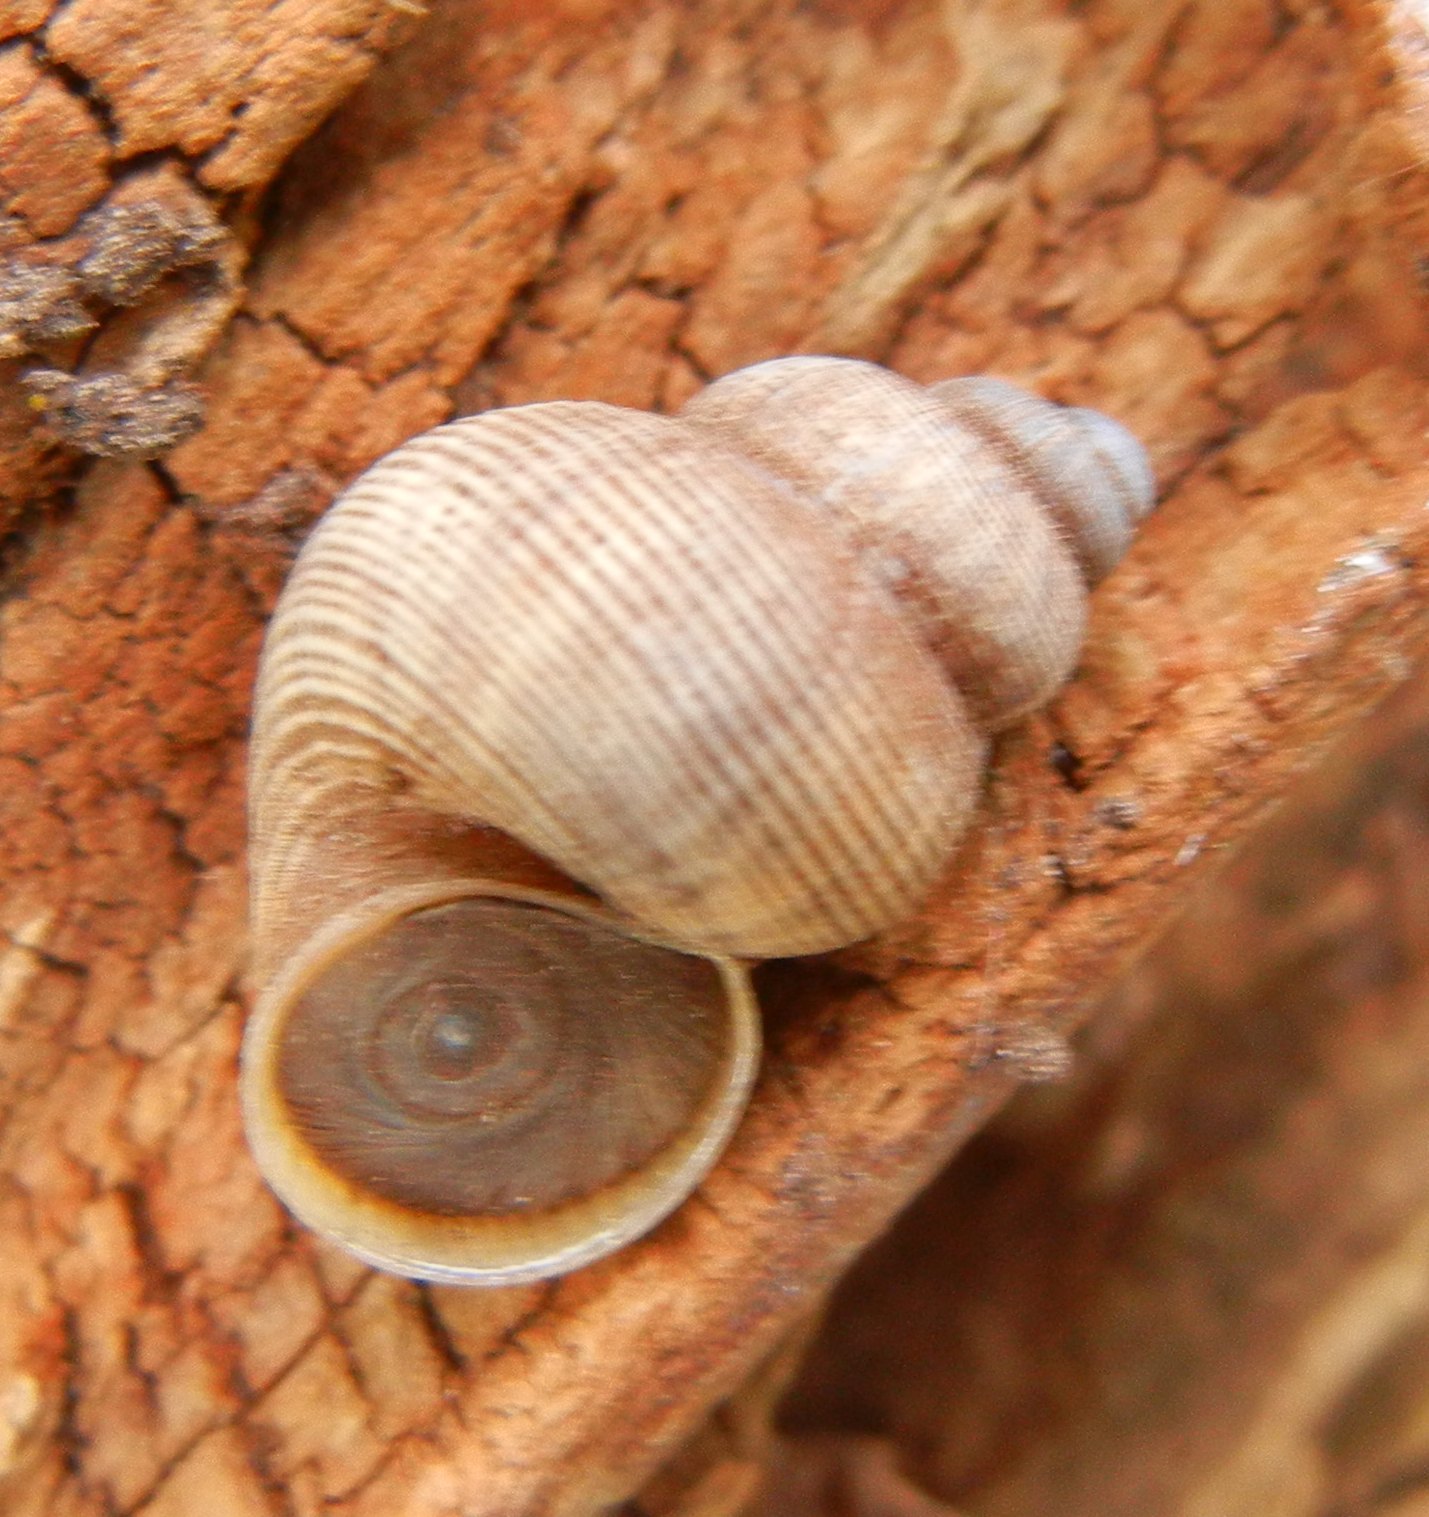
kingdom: Animalia
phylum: Mollusca
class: Gastropoda
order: Littorinimorpha
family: Pomatiidae
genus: Pomatias
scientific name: Pomatias elegans
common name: Red-mouthed snail
